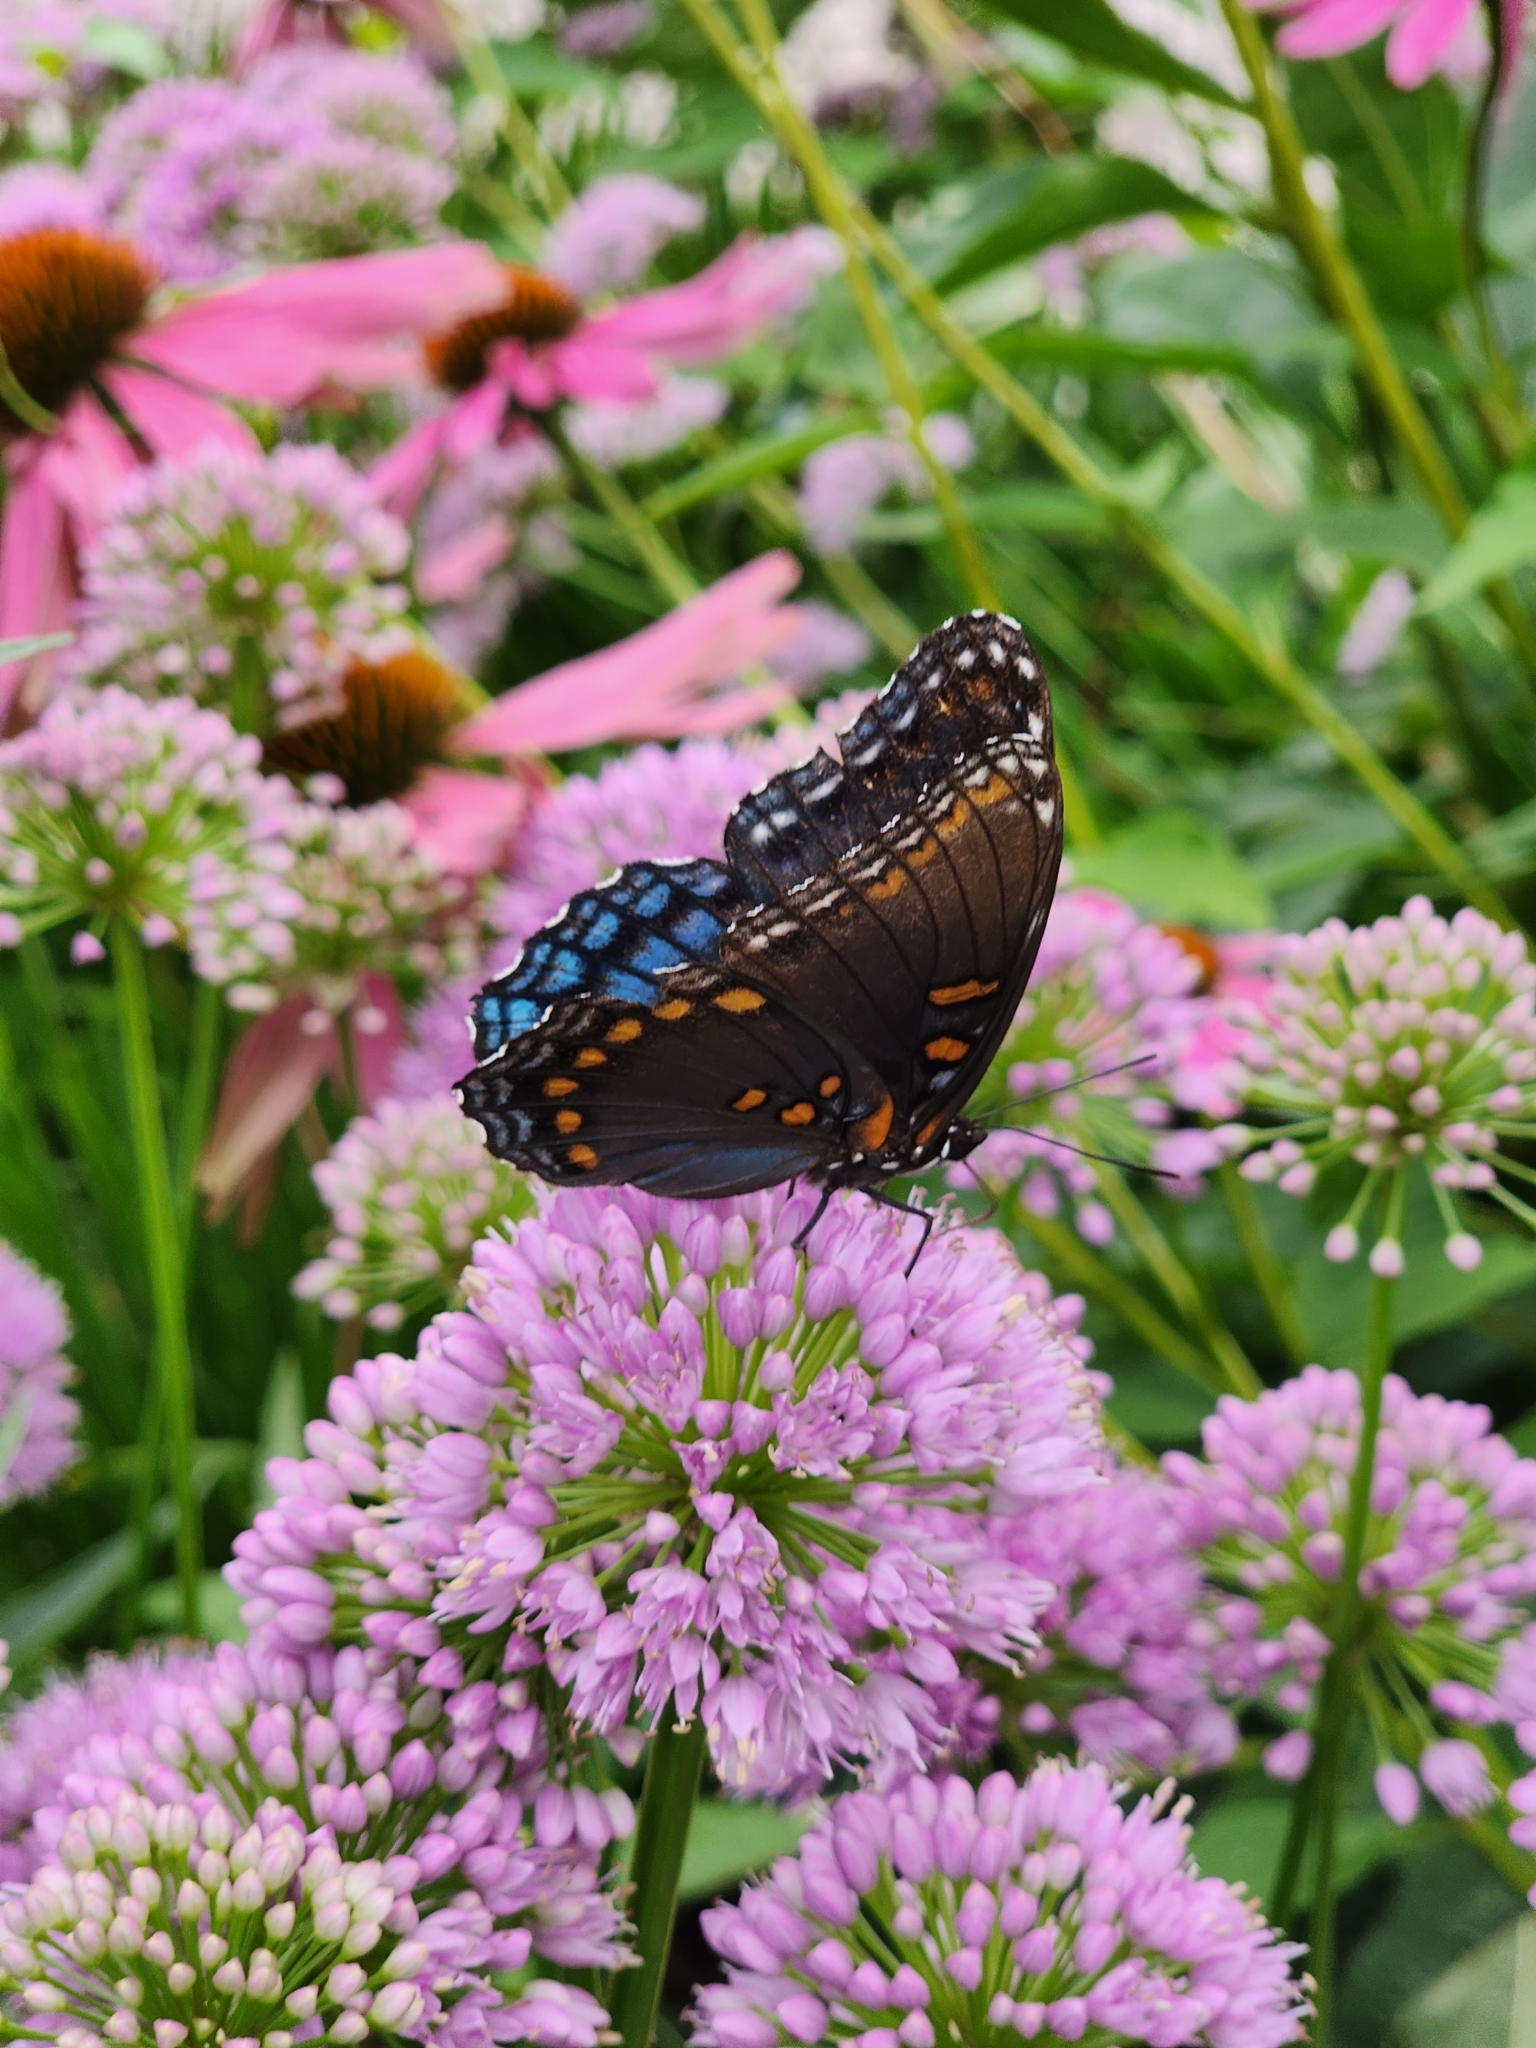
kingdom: Animalia
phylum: Arthropoda
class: Insecta
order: Lepidoptera
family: Nymphalidae
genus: Limenitis
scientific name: Limenitis astyanax
